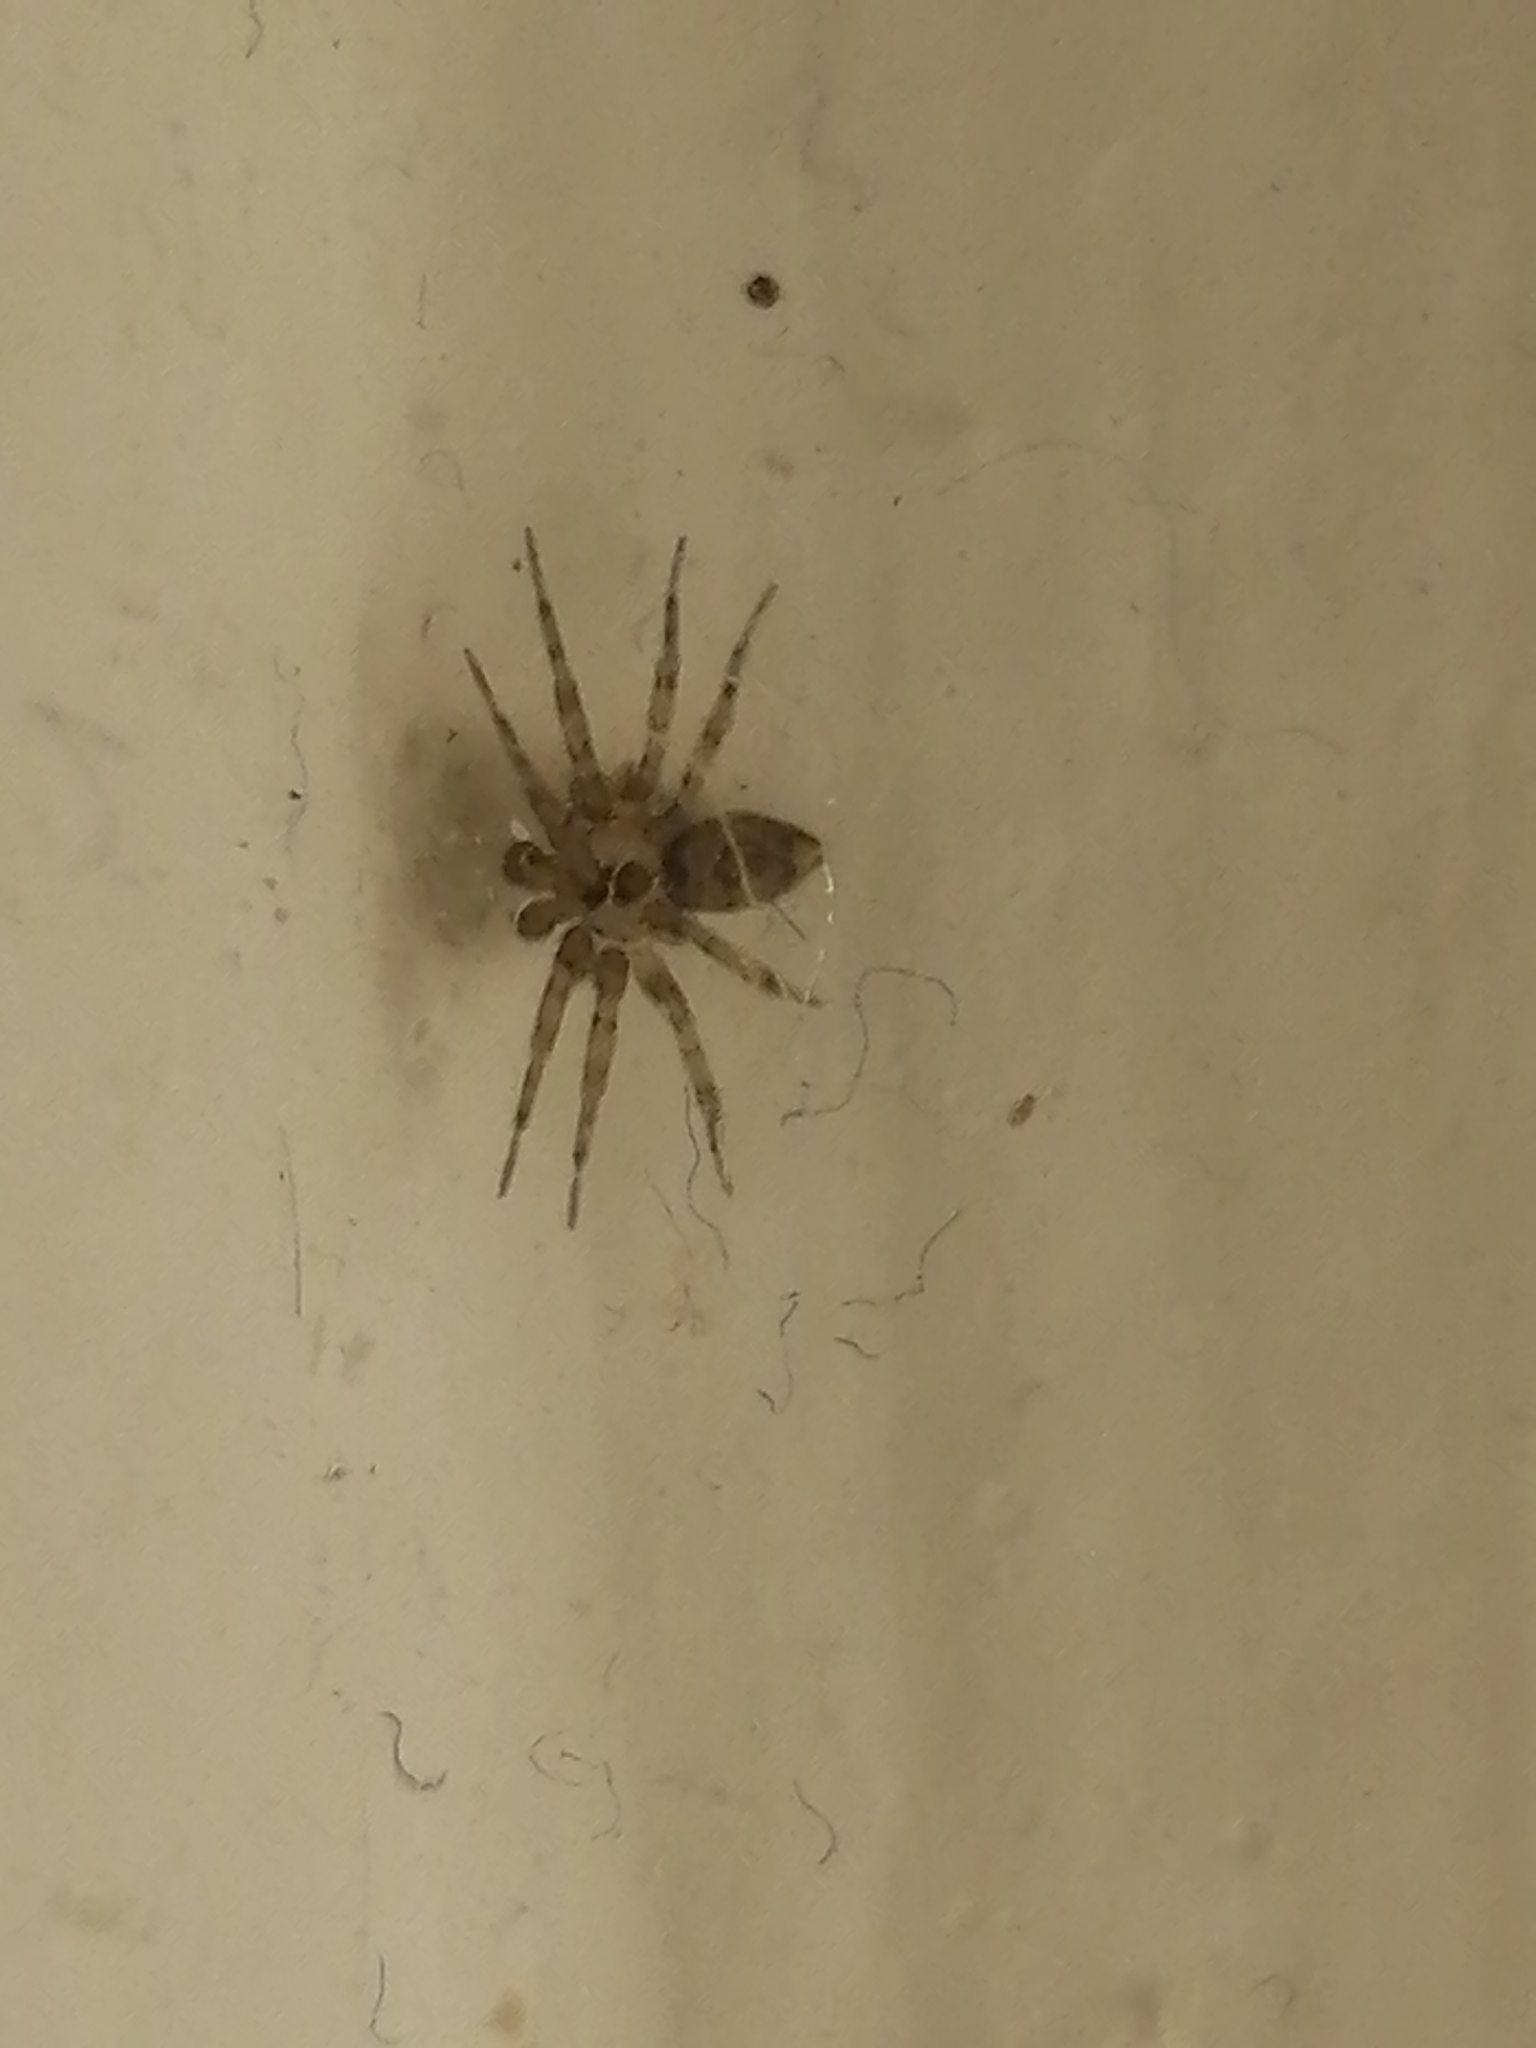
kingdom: Animalia
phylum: Arthropoda
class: Arachnida
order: Araneae
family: Oecobiidae
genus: Oecobius
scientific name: Oecobius navus
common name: Flatmesh weaver
